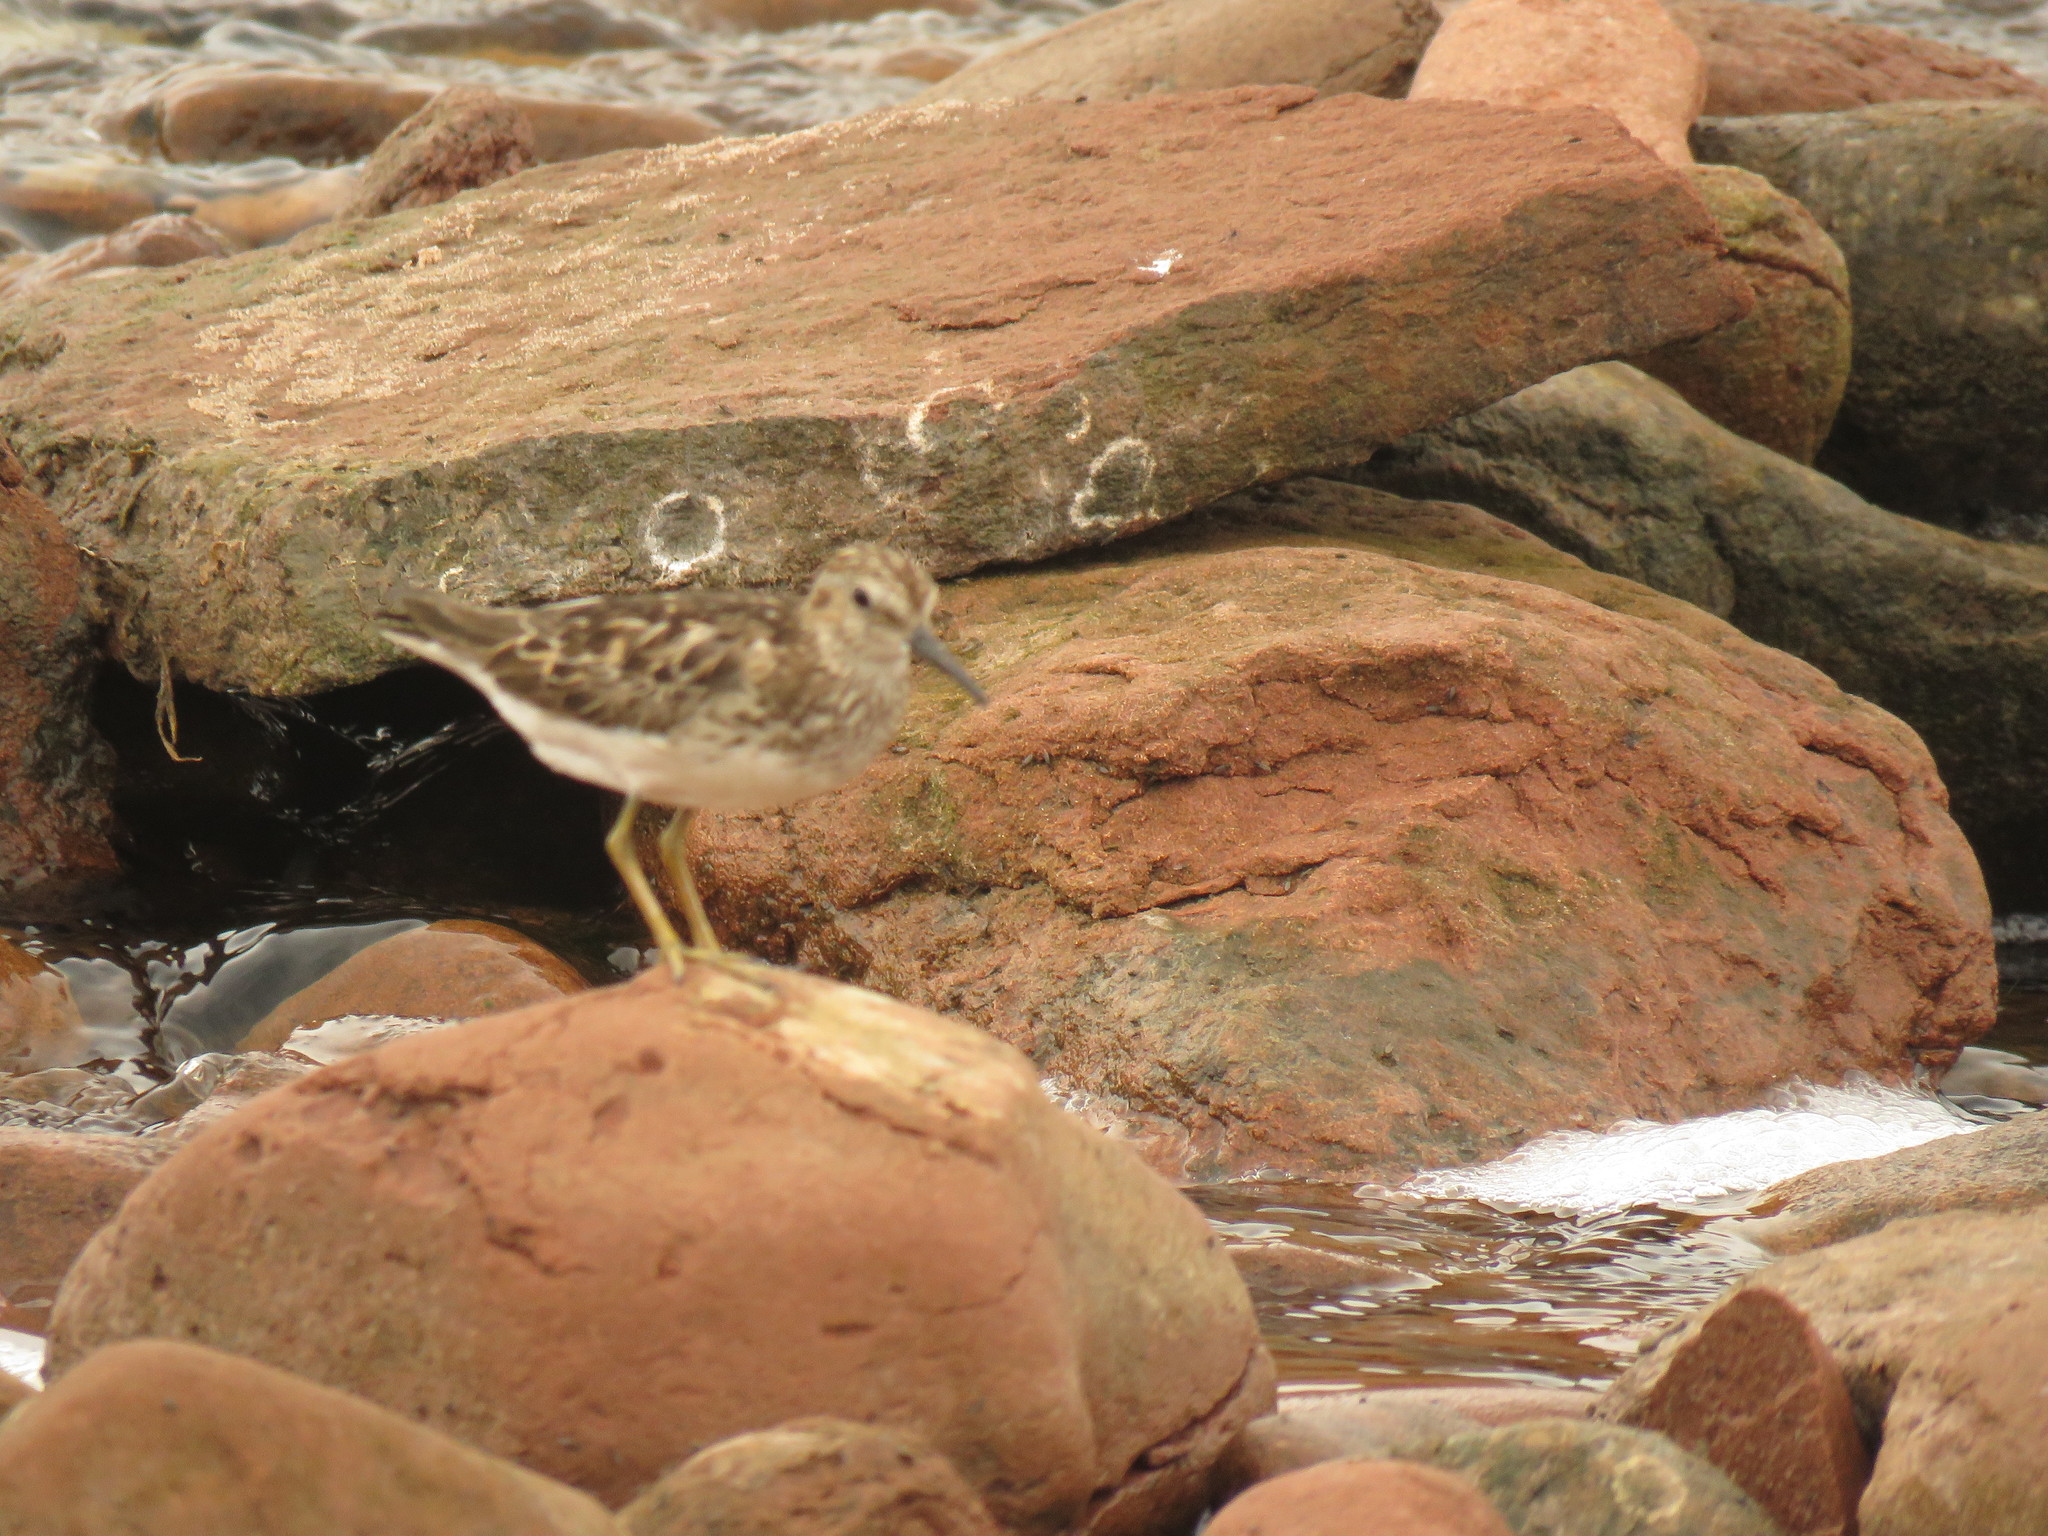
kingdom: Animalia
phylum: Chordata
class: Aves
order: Charadriiformes
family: Scolopacidae
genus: Calidris
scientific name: Calidris minutilla
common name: Least sandpiper
